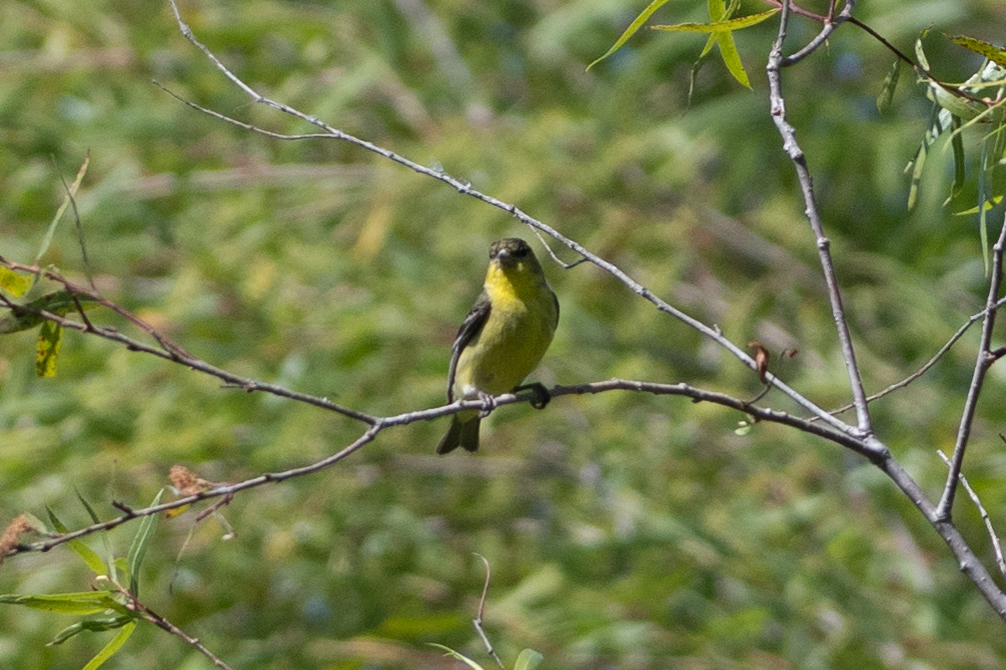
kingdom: Animalia
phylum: Chordata
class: Aves
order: Passeriformes
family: Fringillidae
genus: Spinus
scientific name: Spinus psaltria
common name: Lesser goldfinch
